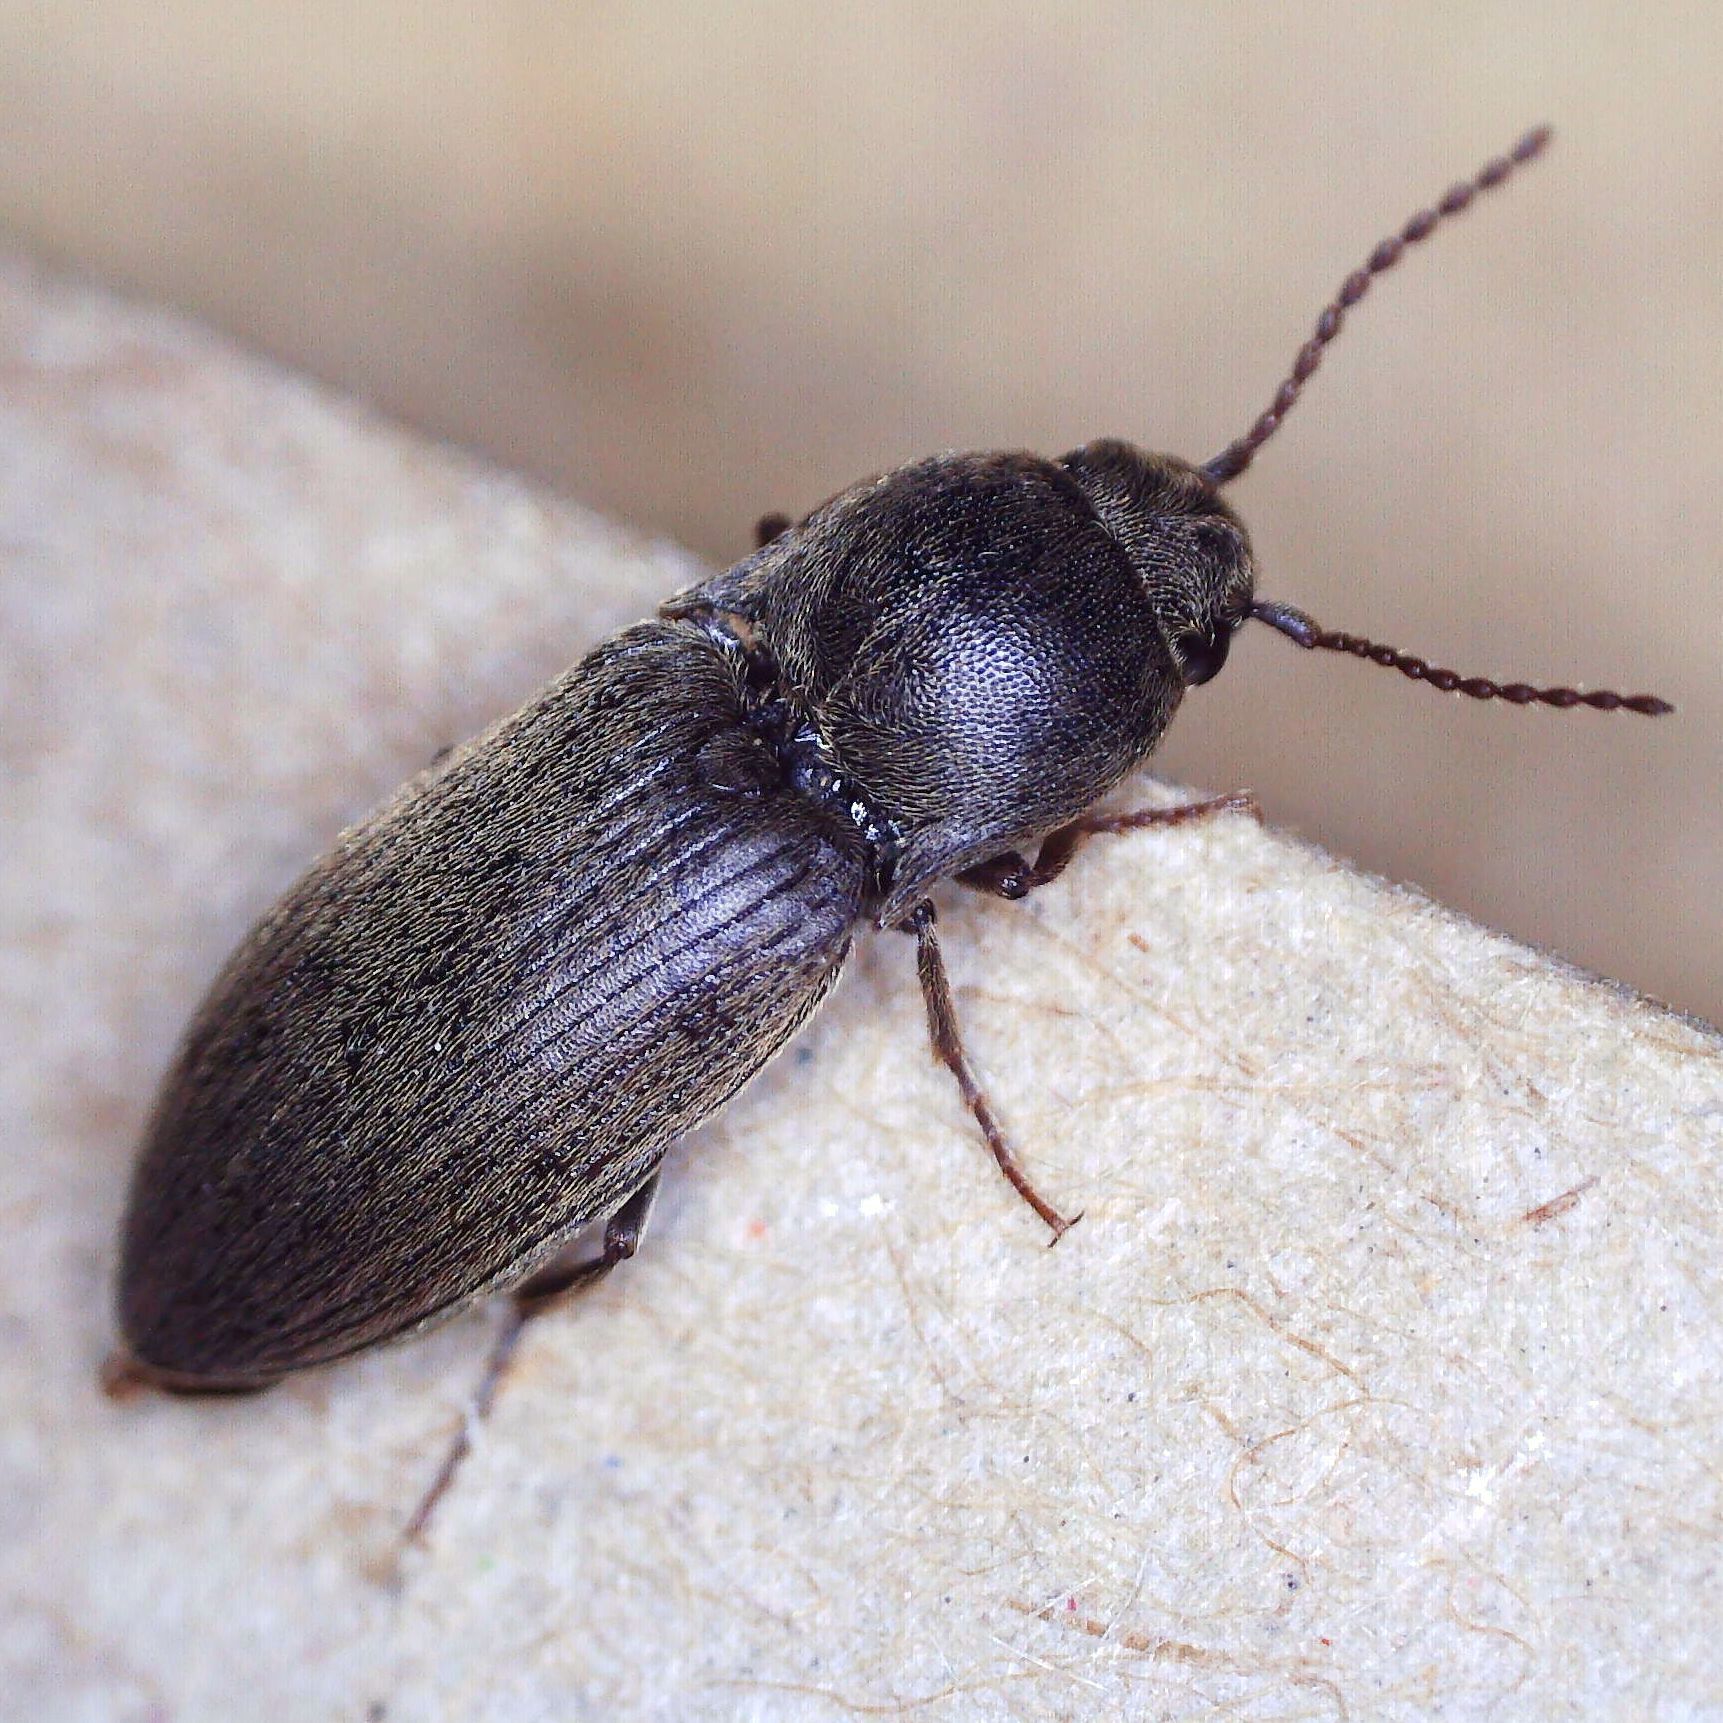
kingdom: Animalia
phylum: Arthropoda
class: Insecta
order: Coleoptera
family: Elateridae
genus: Agriotes
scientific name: Agriotes obscurus
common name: Dusky wireworm
